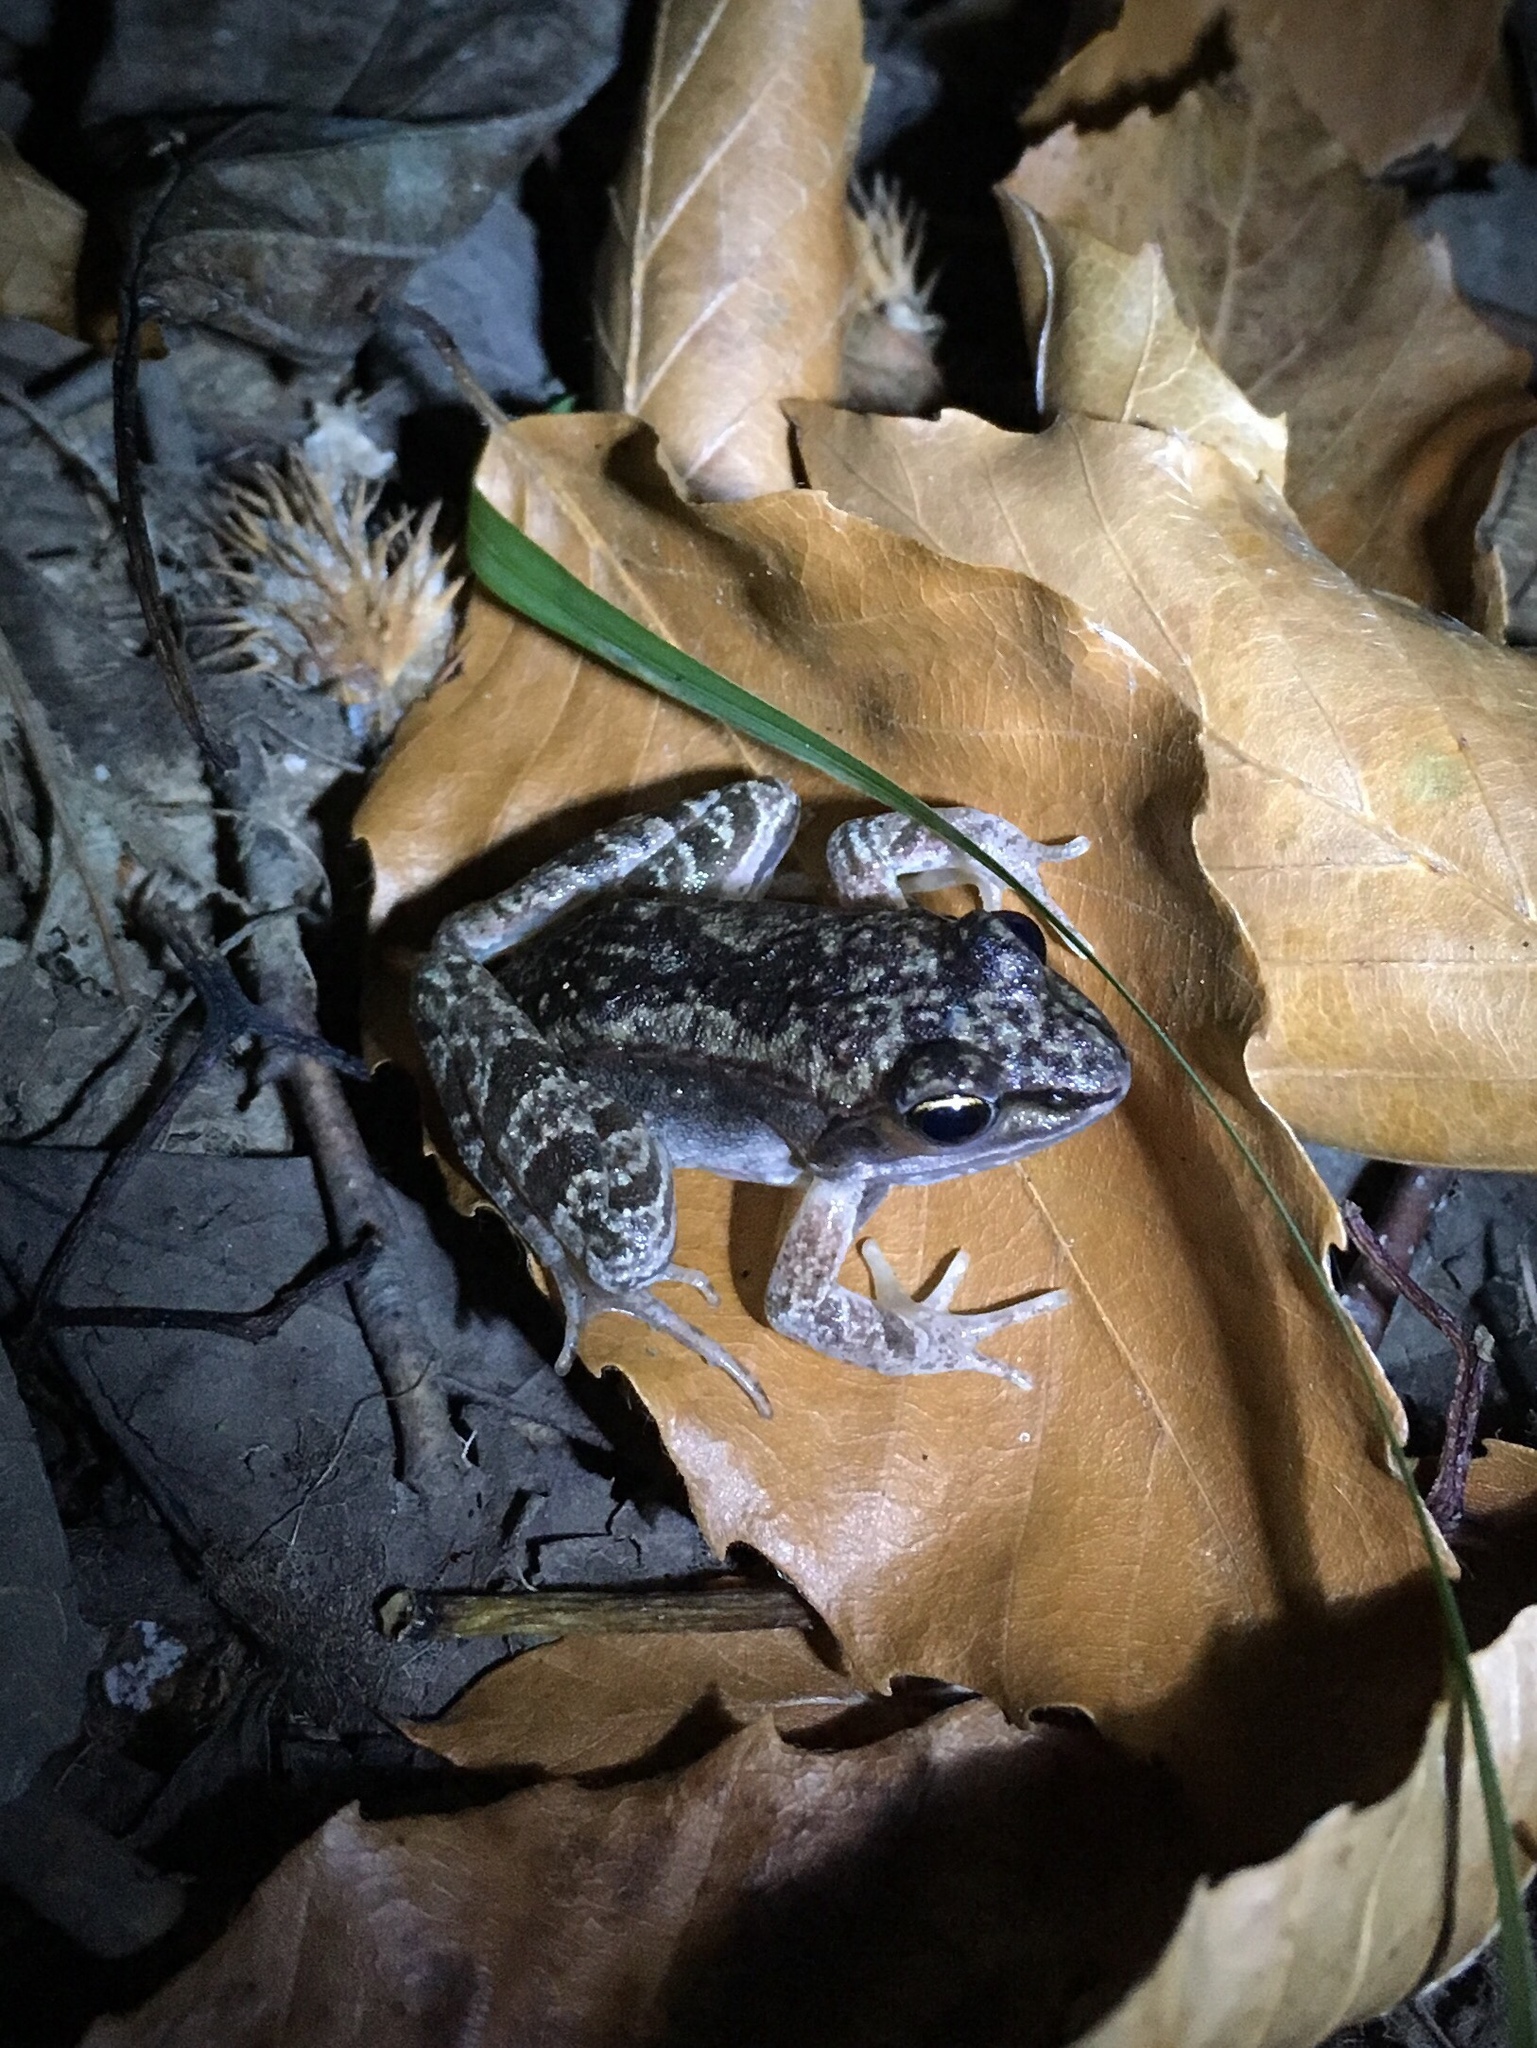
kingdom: Animalia
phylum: Chordata
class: Amphibia
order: Anura
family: Ranidae
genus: Lithobates
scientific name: Lithobates clamitans
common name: Green frog
